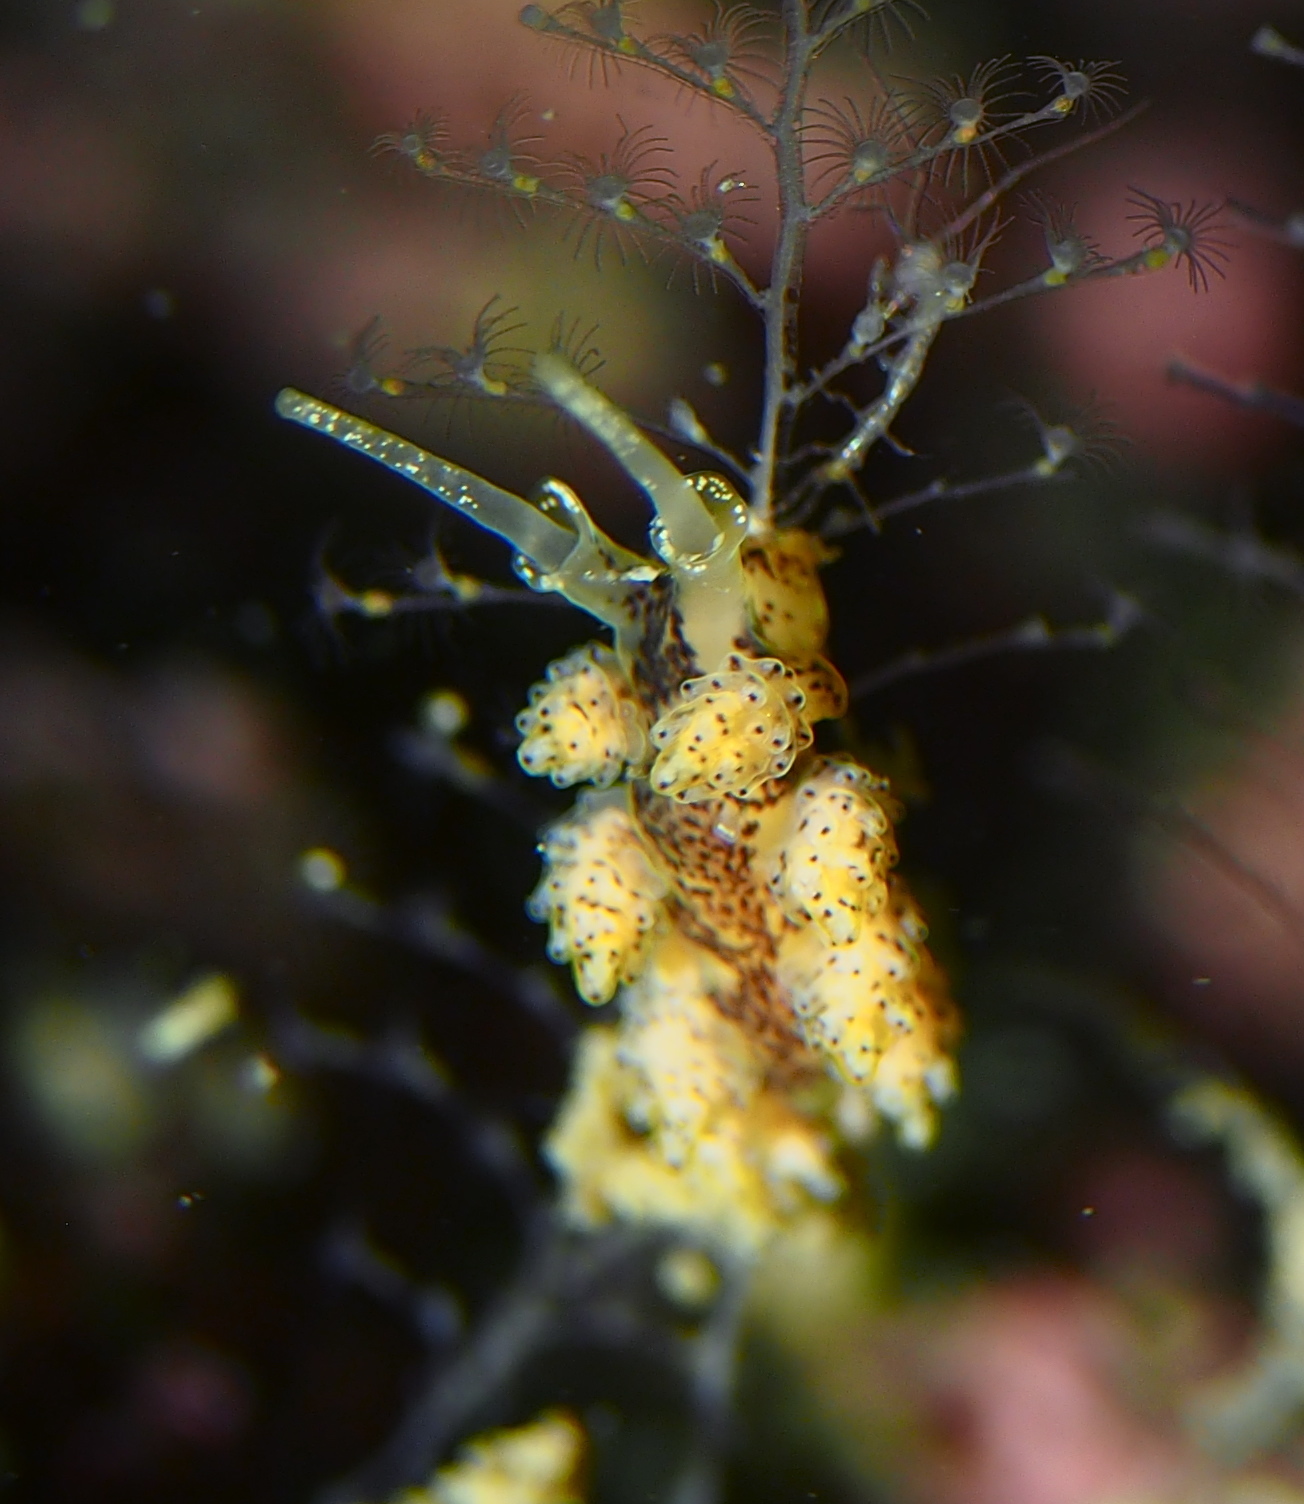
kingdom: Animalia
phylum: Mollusca
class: Gastropoda
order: Nudibranchia
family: Dotidae
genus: Doto
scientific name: Doto dunnei
